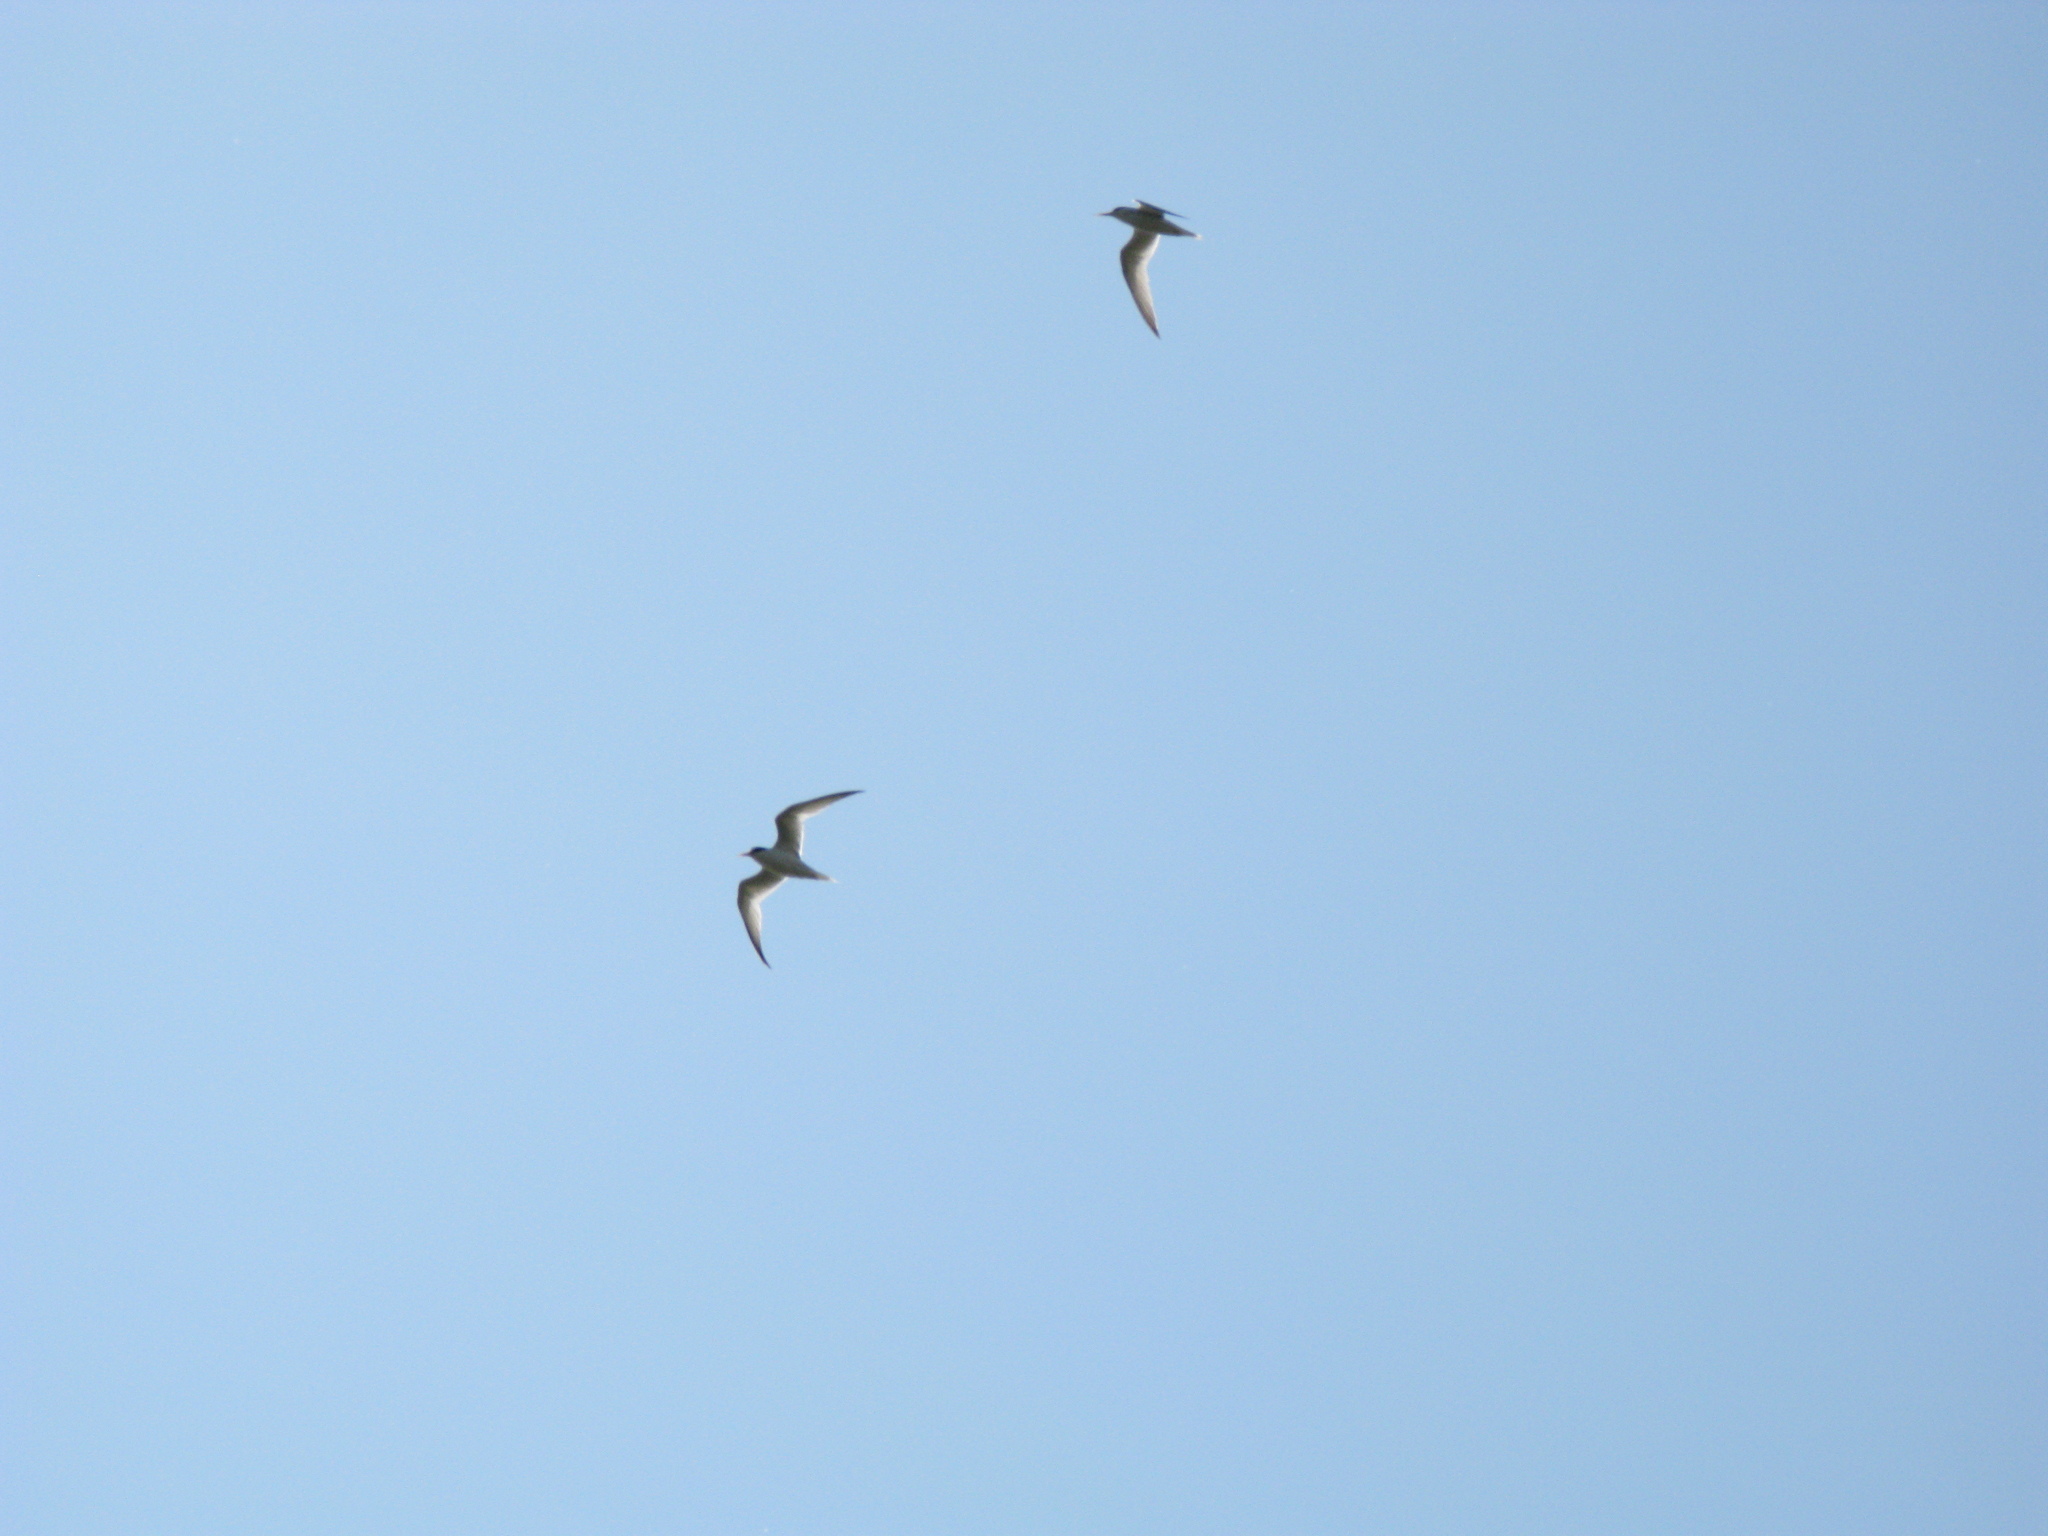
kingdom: Animalia
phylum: Chordata
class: Aves
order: Charadriiformes
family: Laridae
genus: Sterna
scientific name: Sterna hirundo
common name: Common tern
